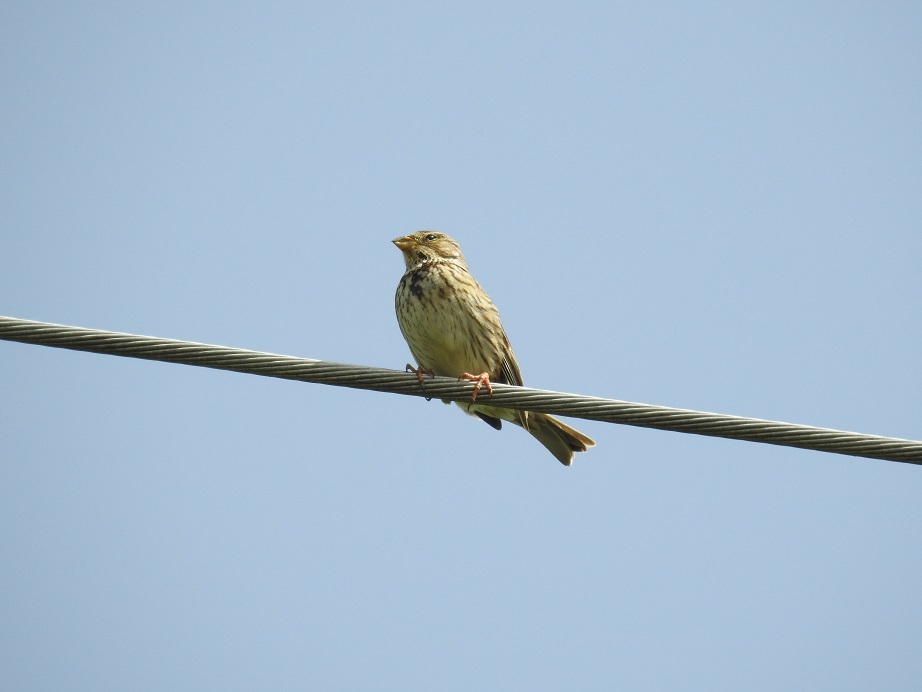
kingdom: Animalia
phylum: Chordata
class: Aves
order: Passeriformes
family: Emberizidae
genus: Emberiza
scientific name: Emberiza calandra
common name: Corn bunting
